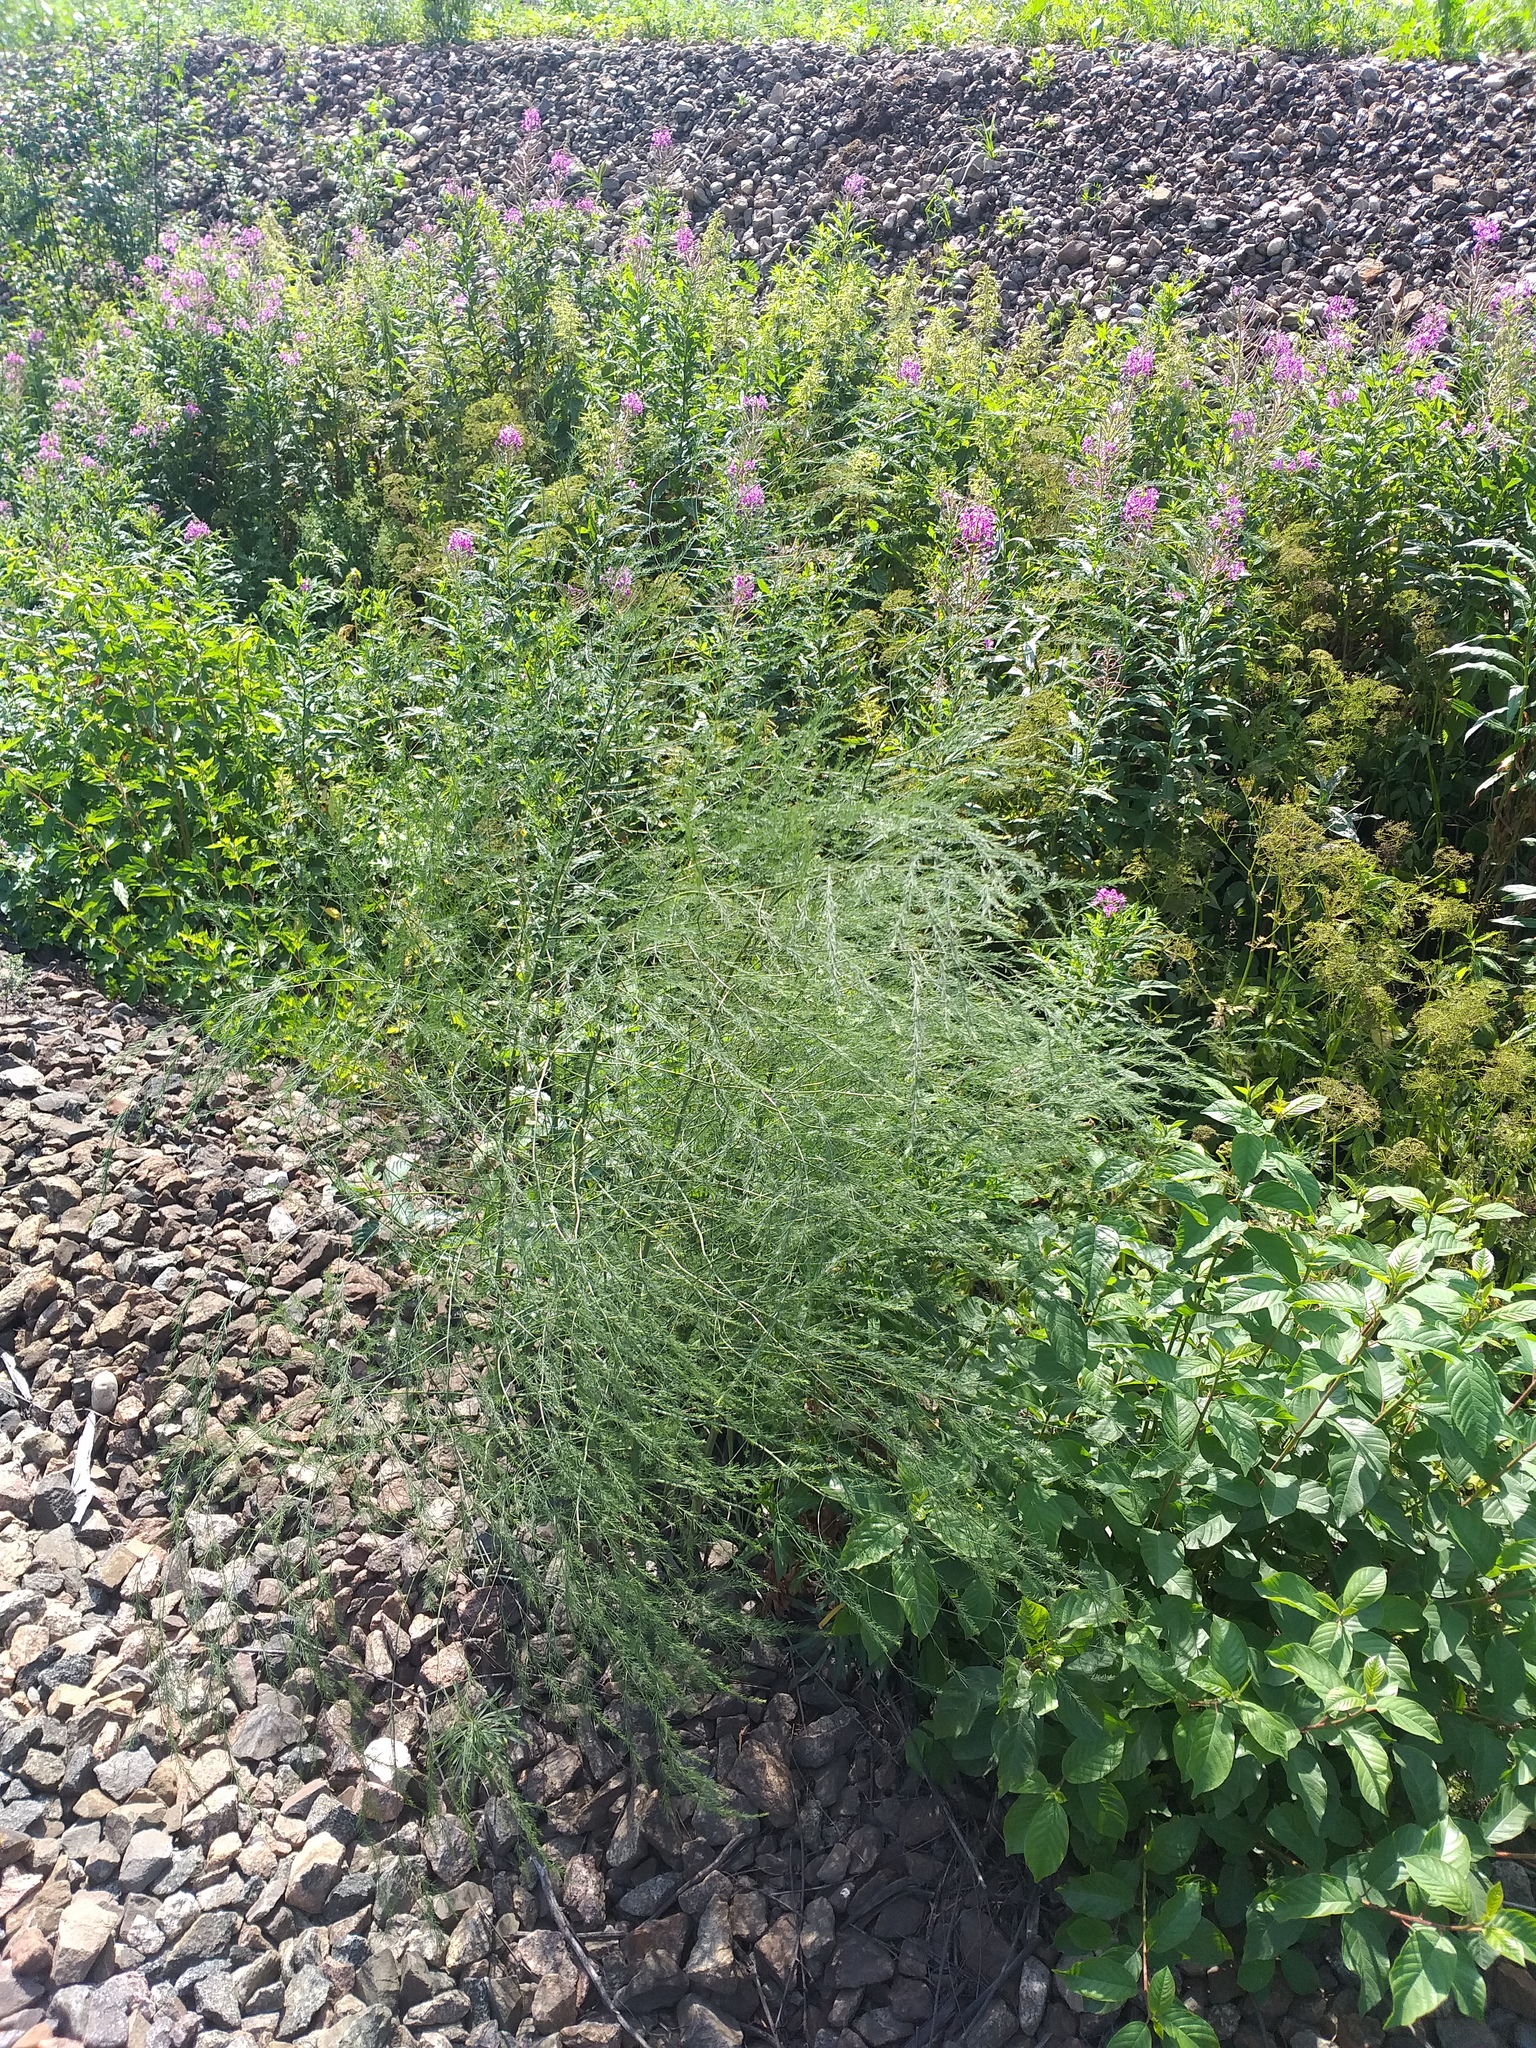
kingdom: Plantae
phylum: Tracheophyta
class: Liliopsida
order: Asparagales
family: Asparagaceae
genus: Asparagus
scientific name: Asparagus officinalis
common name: Garden asparagus
